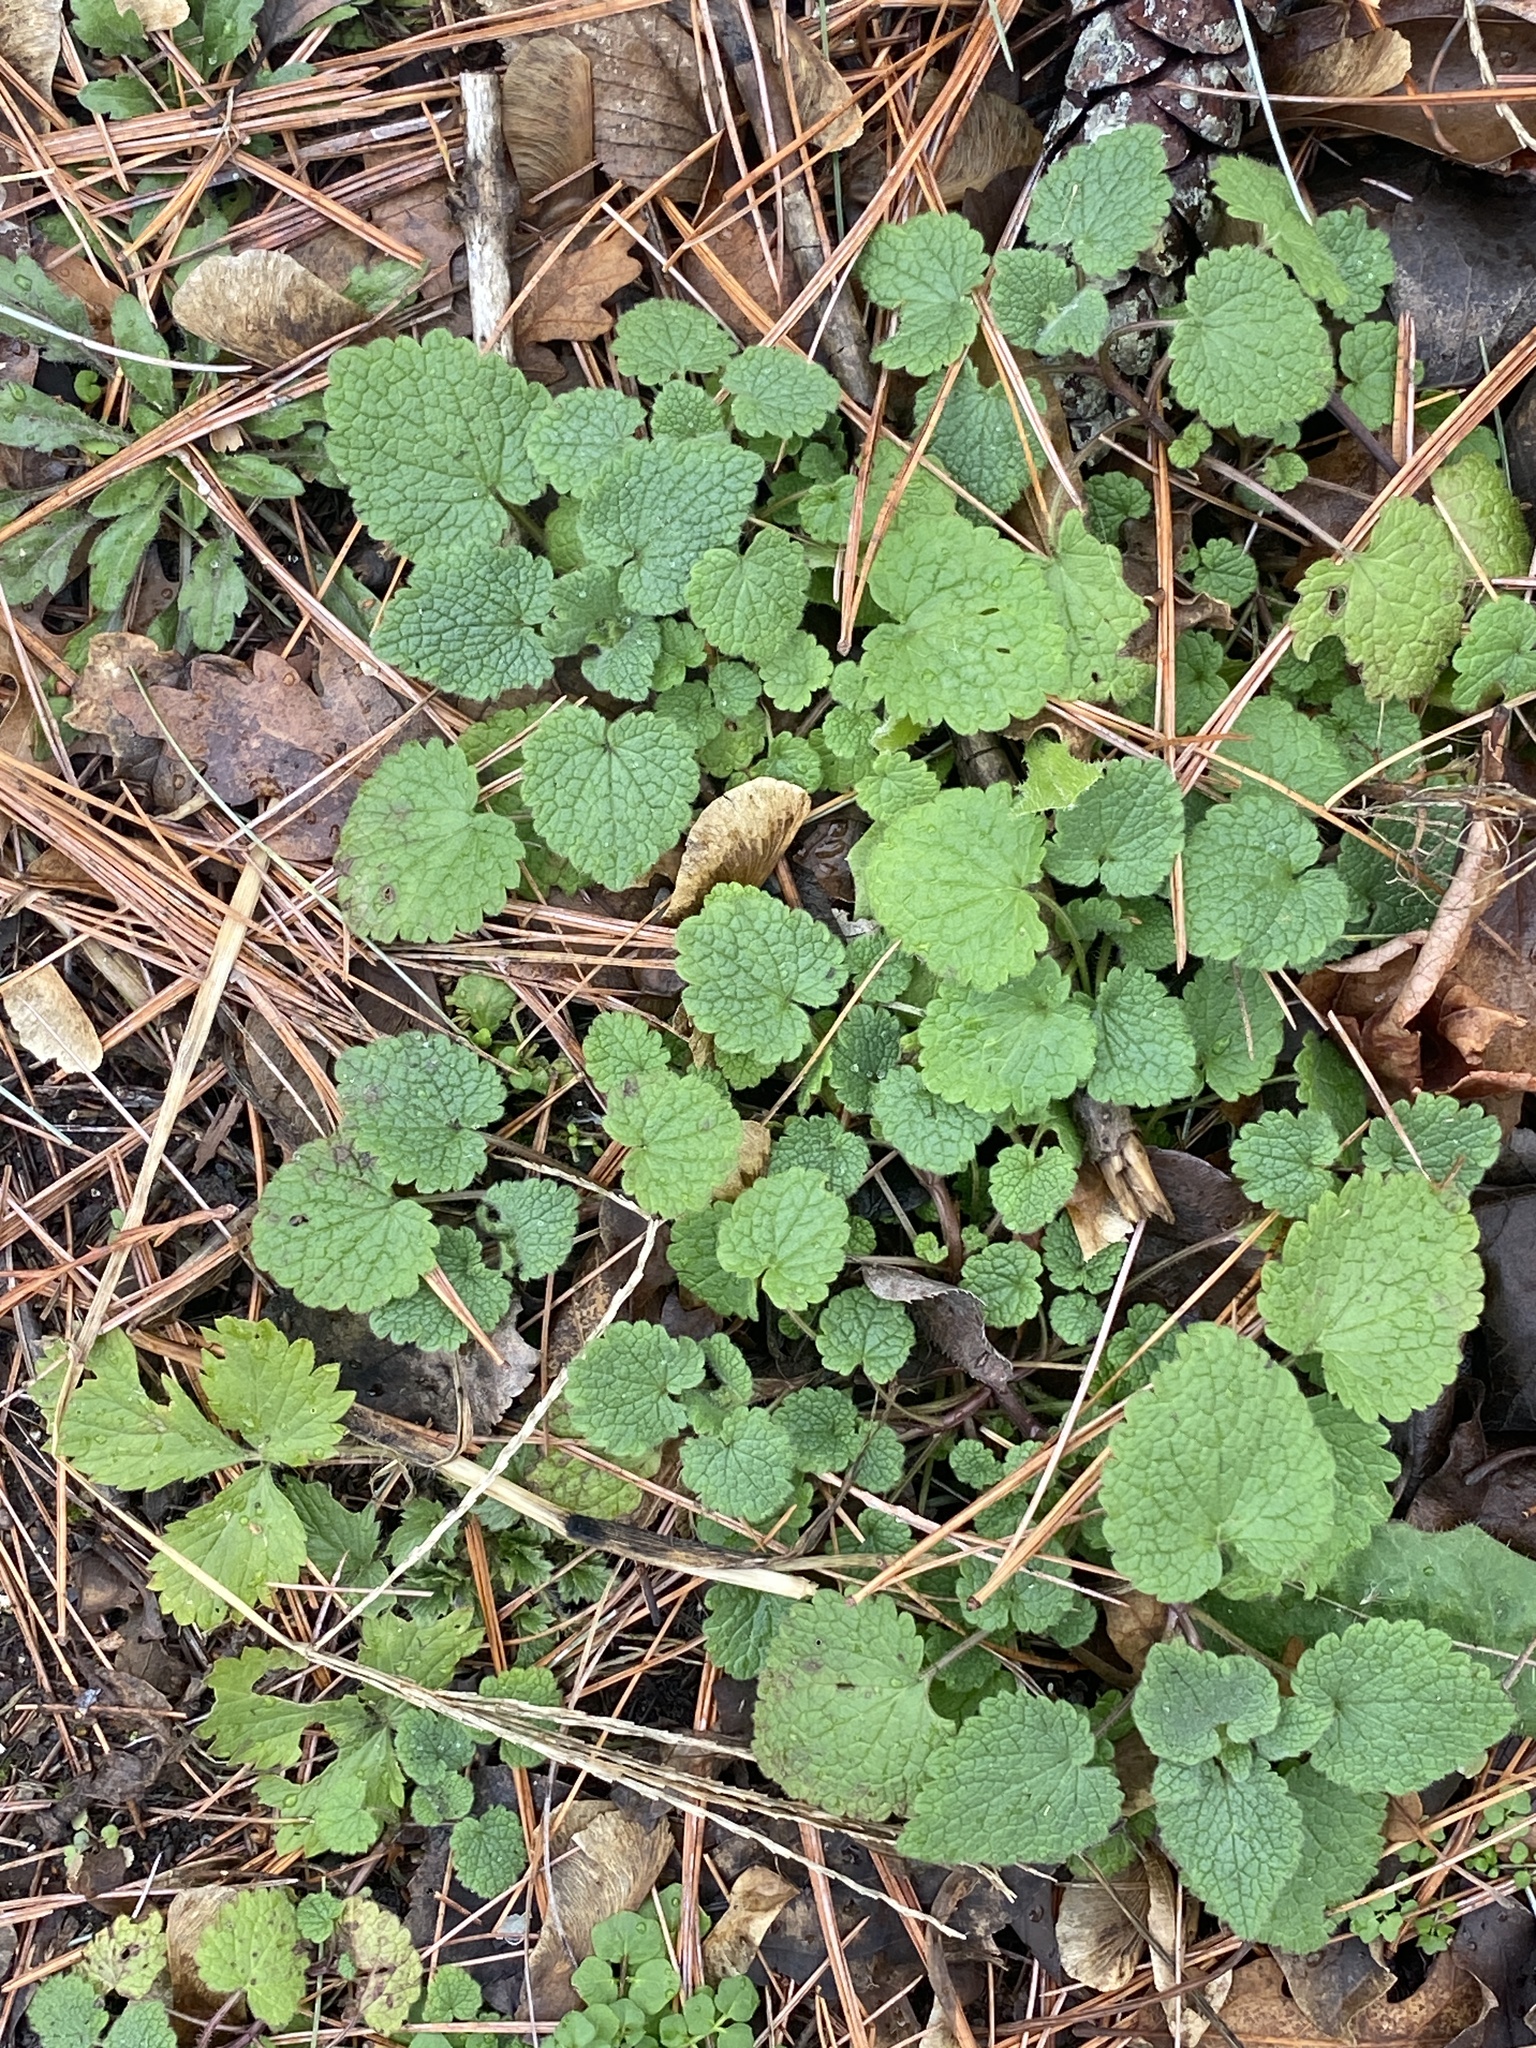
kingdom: Plantae
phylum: Tracheophyta
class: Magnoliopsida
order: Lamiales
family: Lamiaceae
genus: Lamium
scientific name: Lamium purpureum
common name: Red dead-nettle
